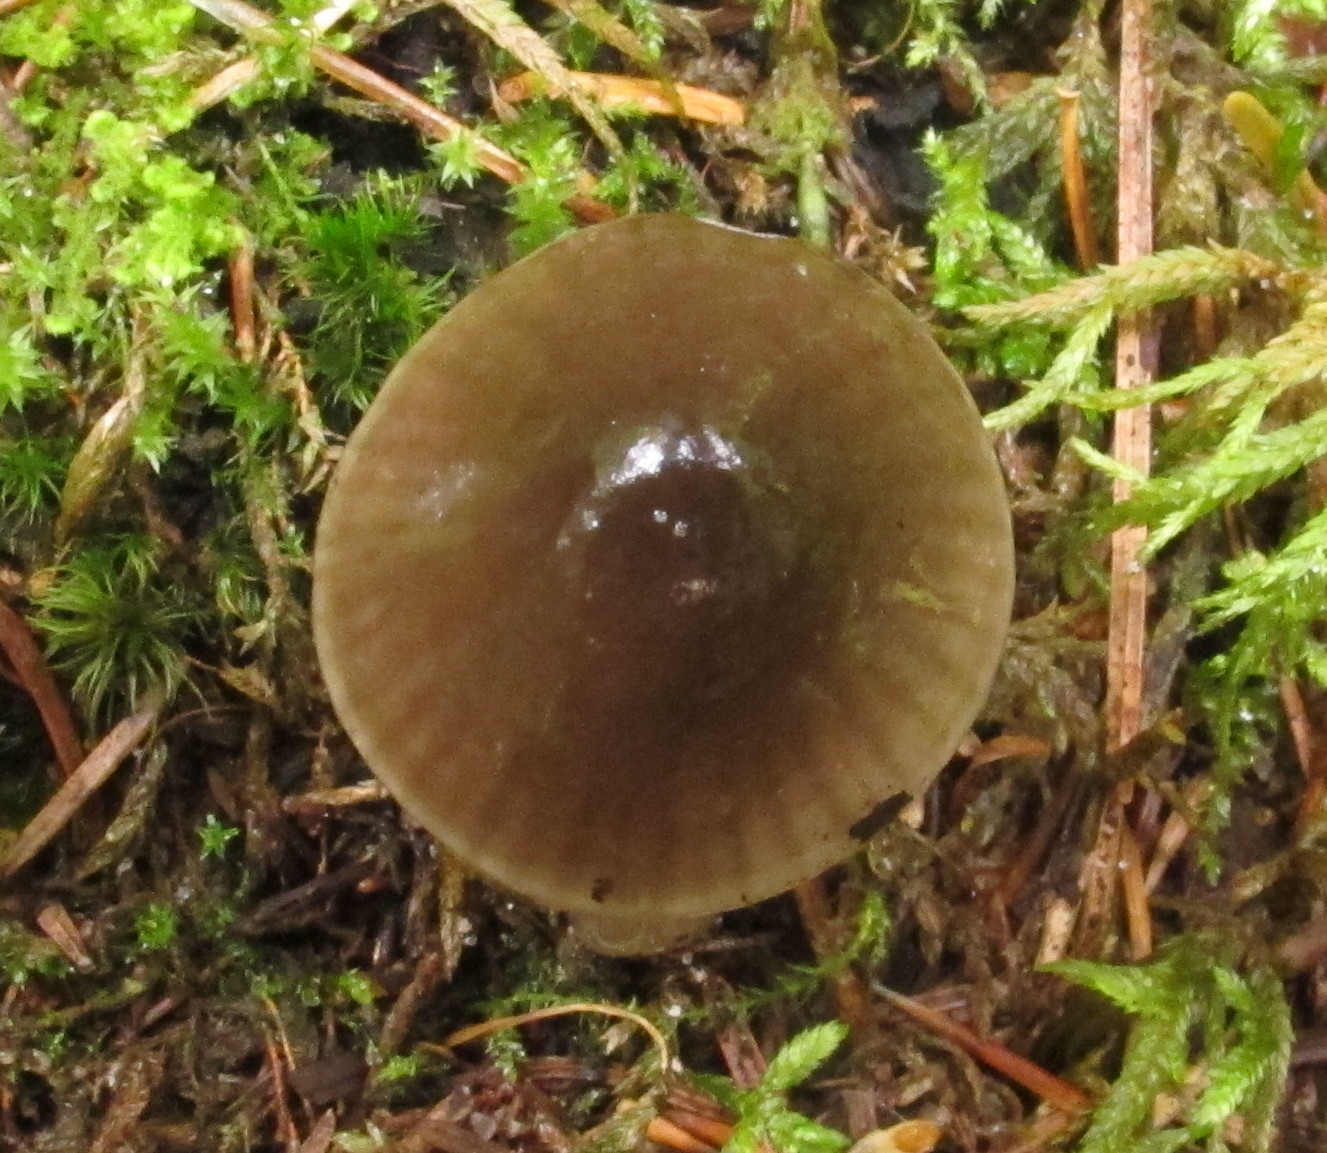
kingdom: Fungi
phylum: Basidiomycota
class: Agaricomycetes
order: Agaricales
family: Hygrophoraceae
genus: Gliophorus
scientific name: Gliophorus irrigatus
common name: Slimy waxcap
